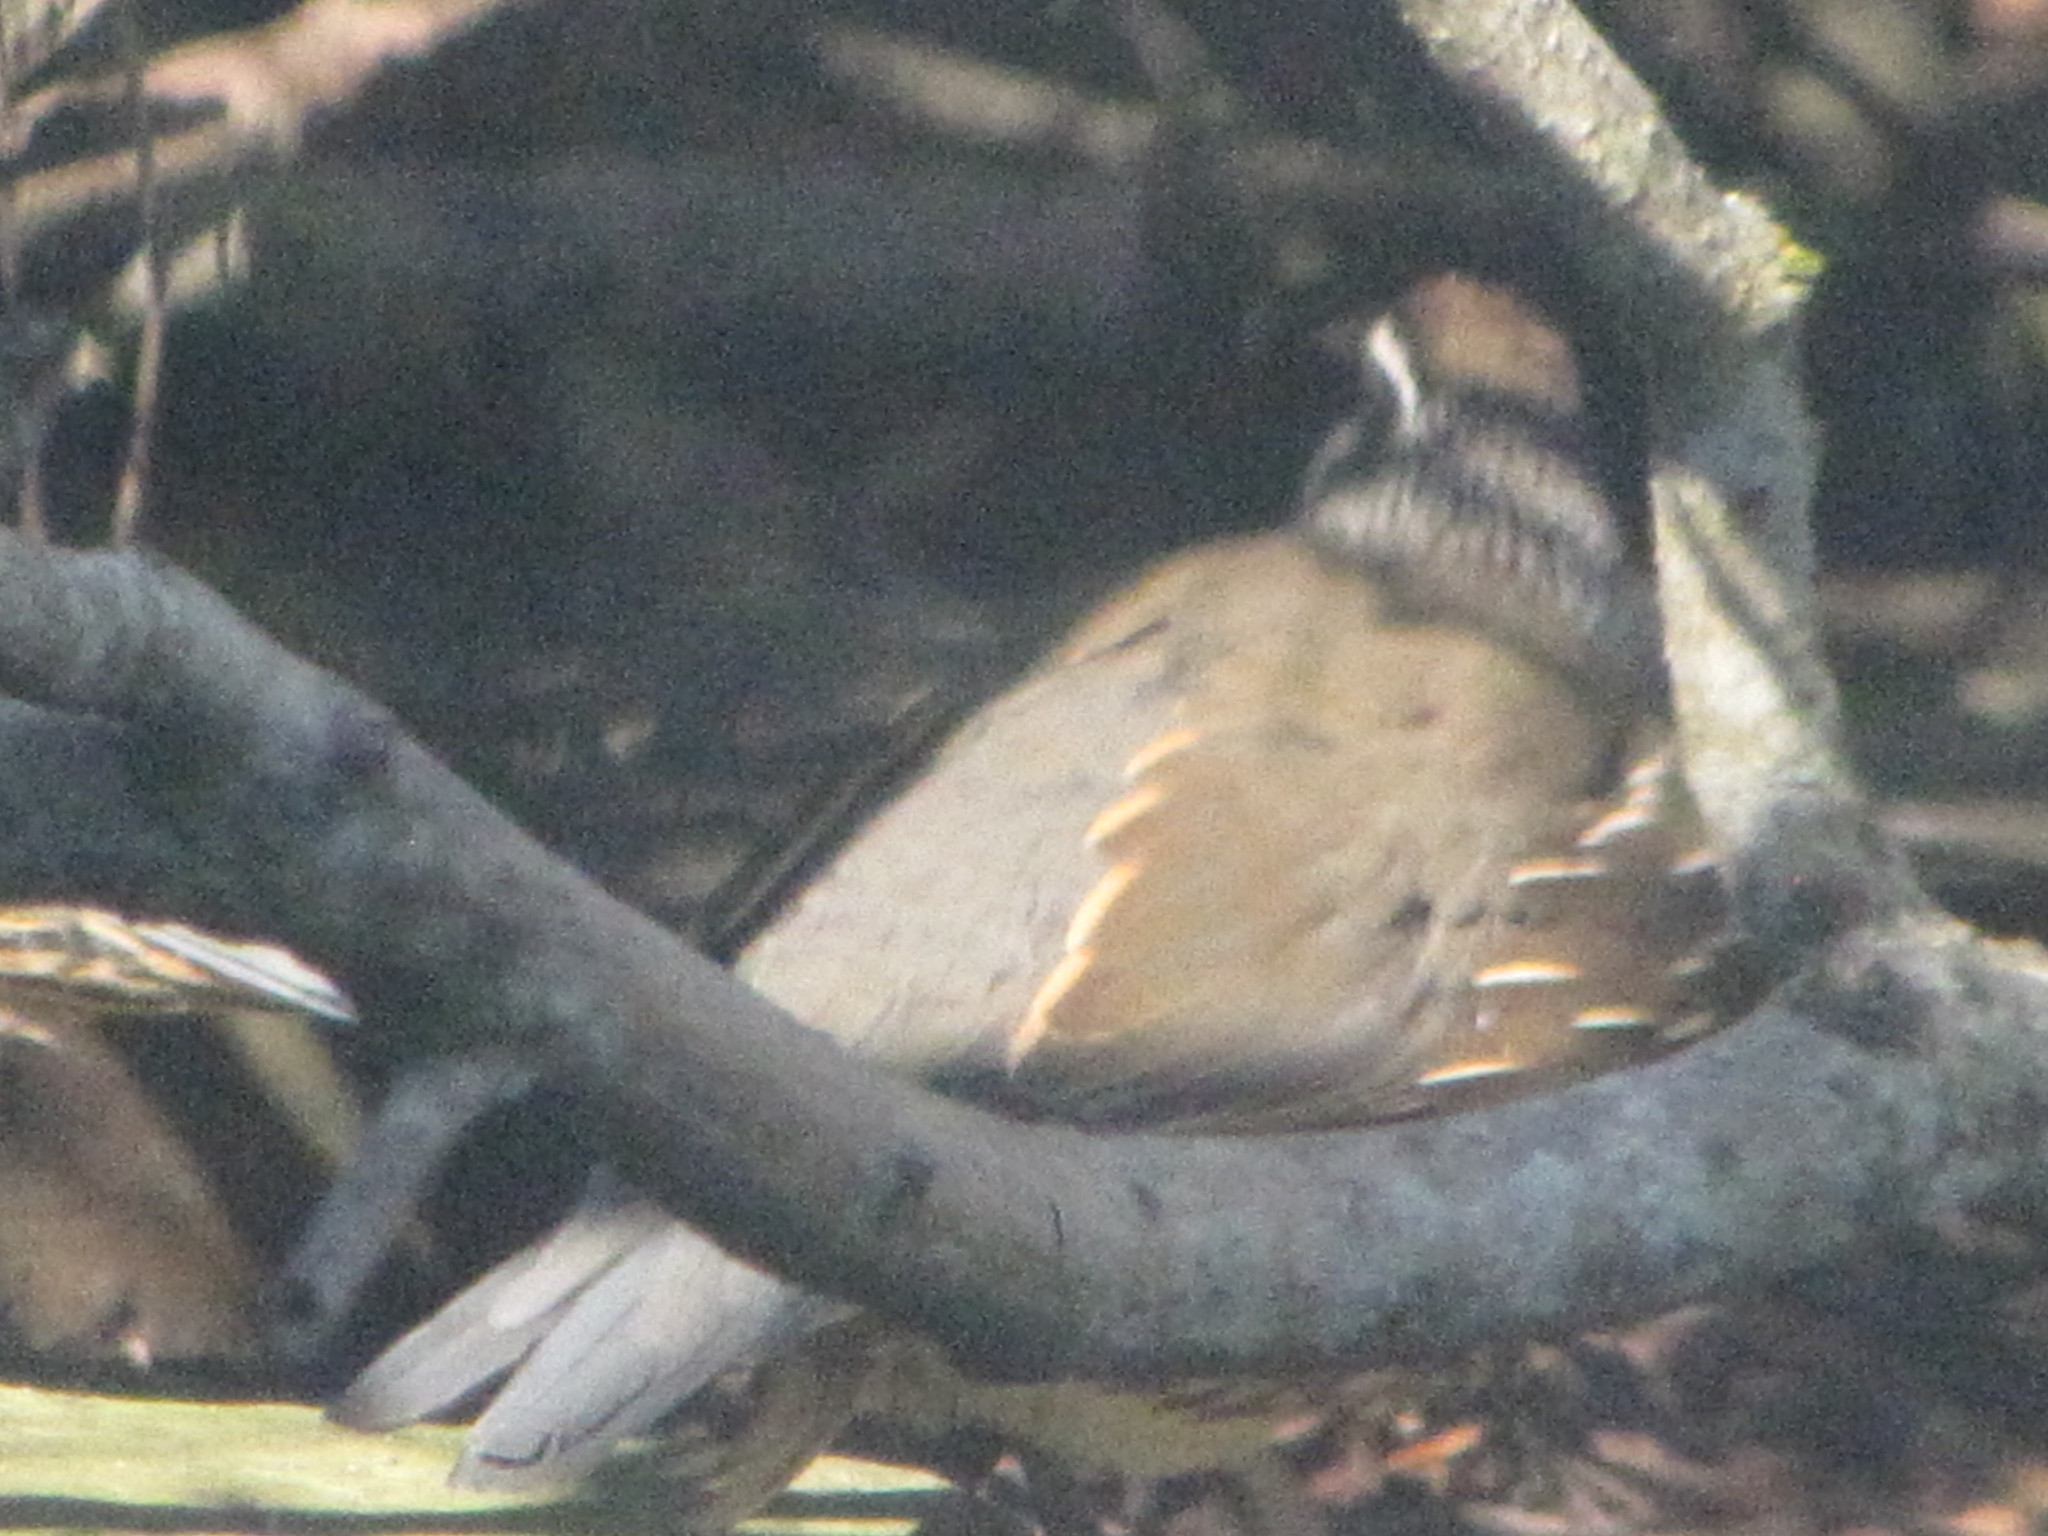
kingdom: Animalia
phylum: Chordata
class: Aves
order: Galliformes
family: Odontophoridae
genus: Callipepla
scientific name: Callipepla californica
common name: California quail
